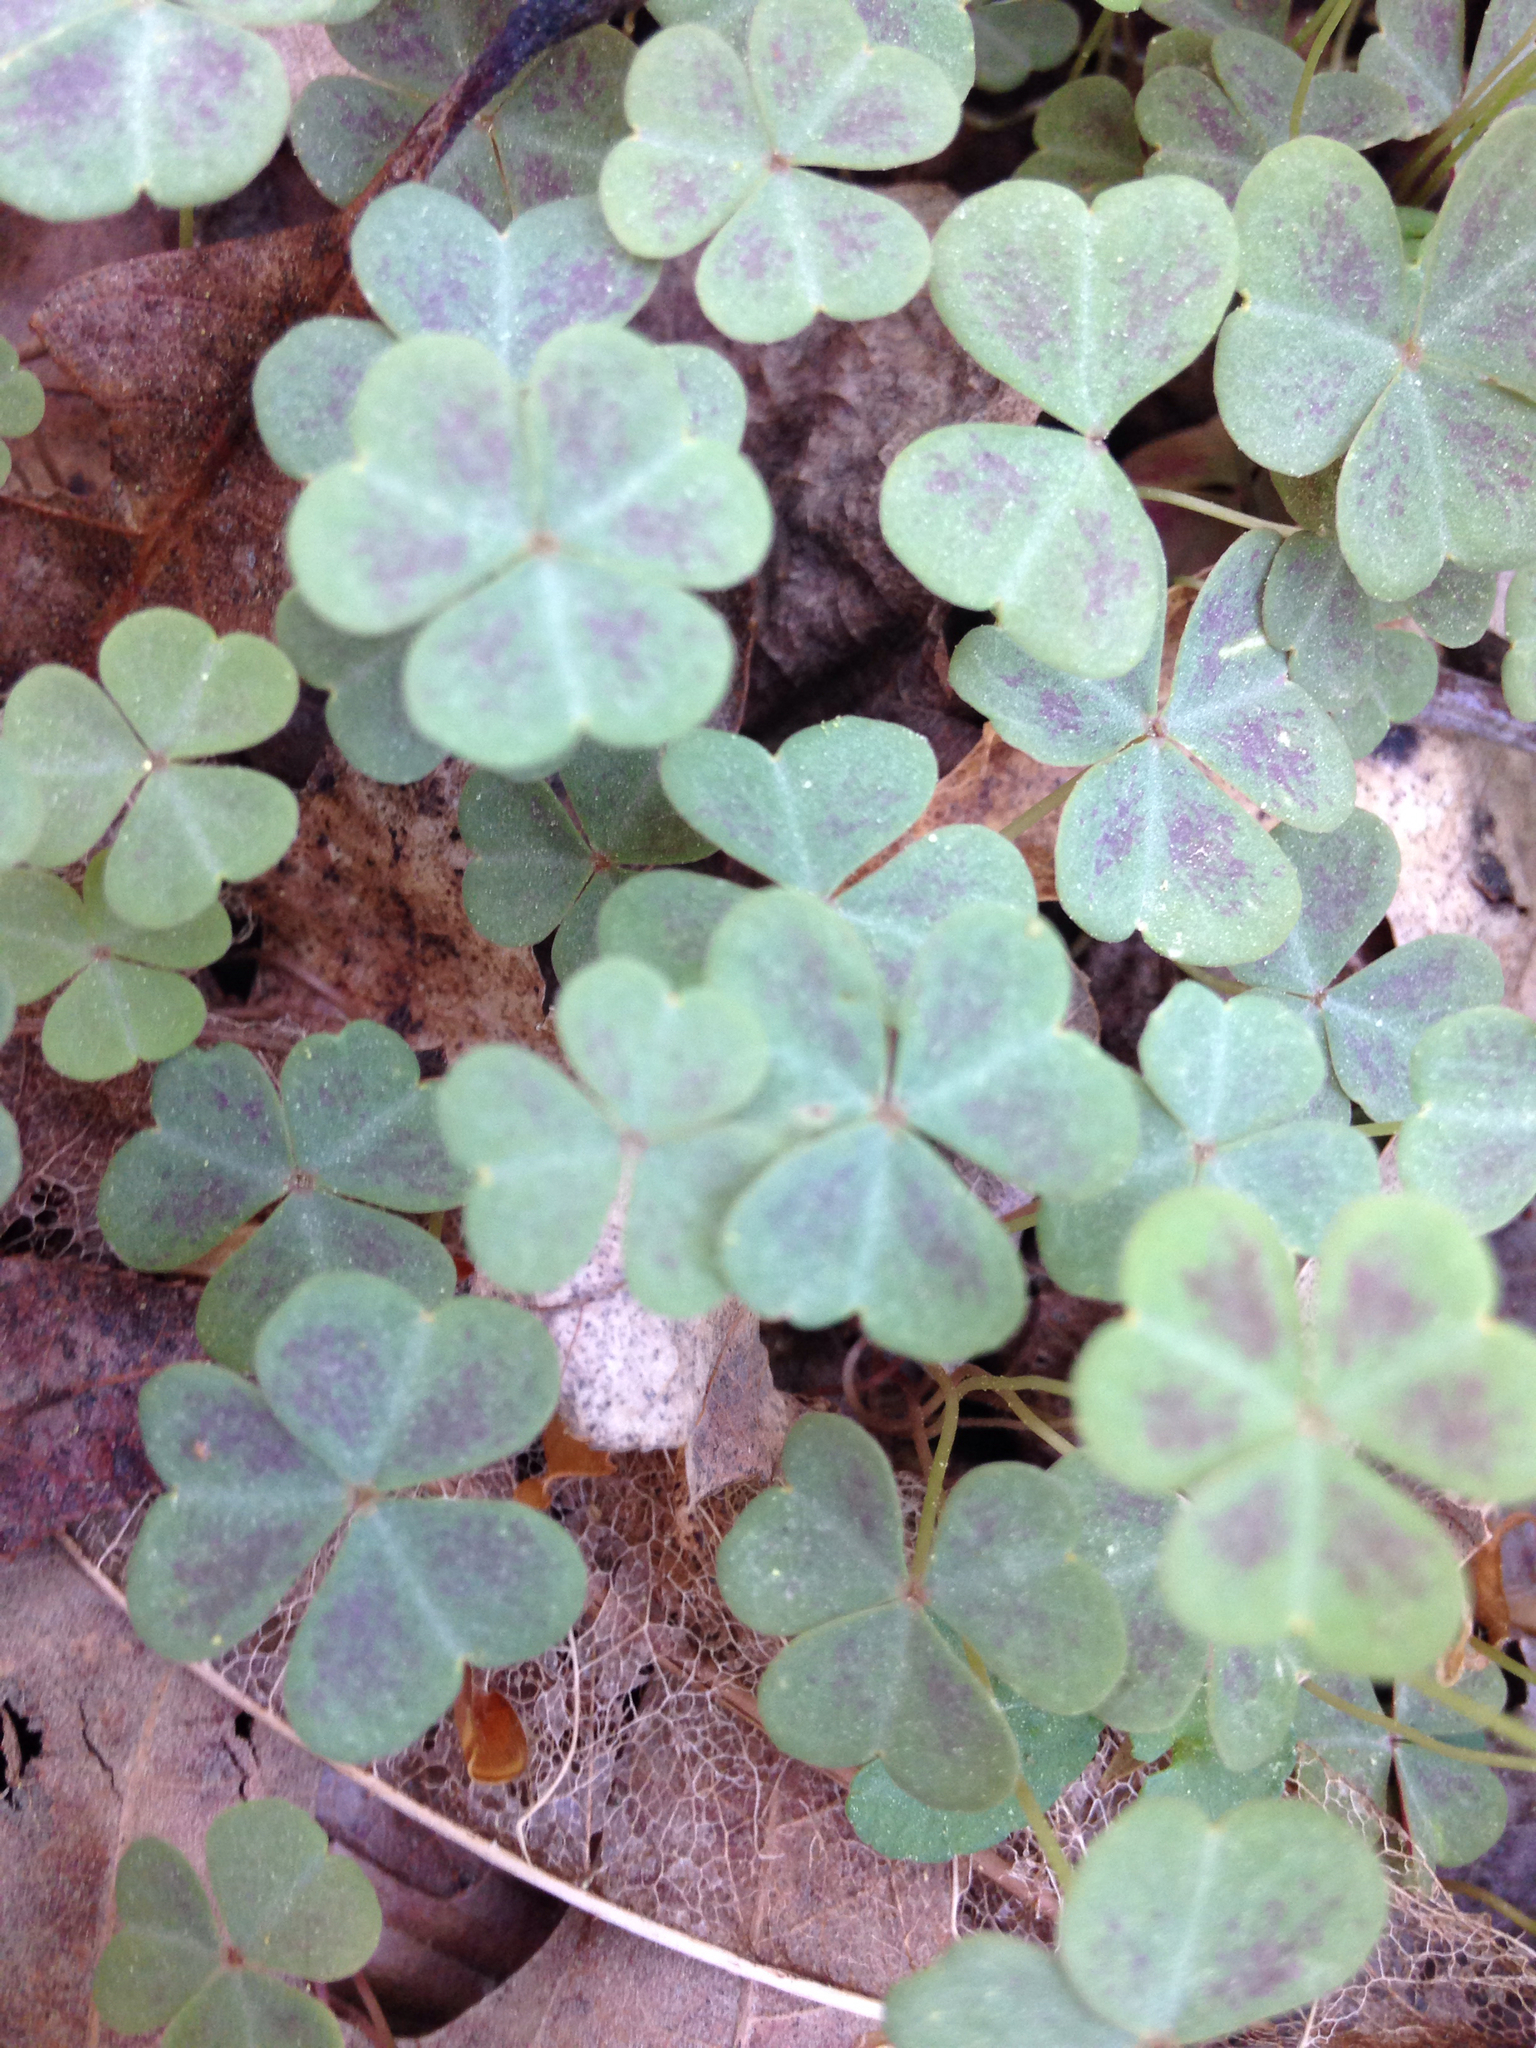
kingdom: Plantae
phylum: Tracheophyta
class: Magnoliopsida
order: Oxalidales
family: Oxalidaceae
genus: Oxalis
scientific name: Oxalis violacea
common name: Violet wood-sorrel
